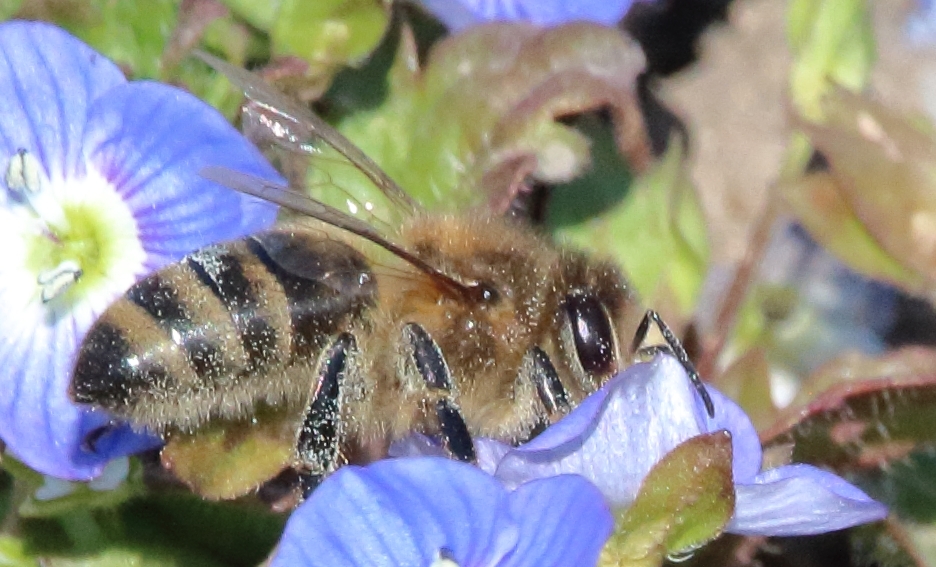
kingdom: Animalia
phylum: Arthropoda
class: Insecta
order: Hymenoptera
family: Apidae
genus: Apis
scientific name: Apis mellifera
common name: Honey bee
